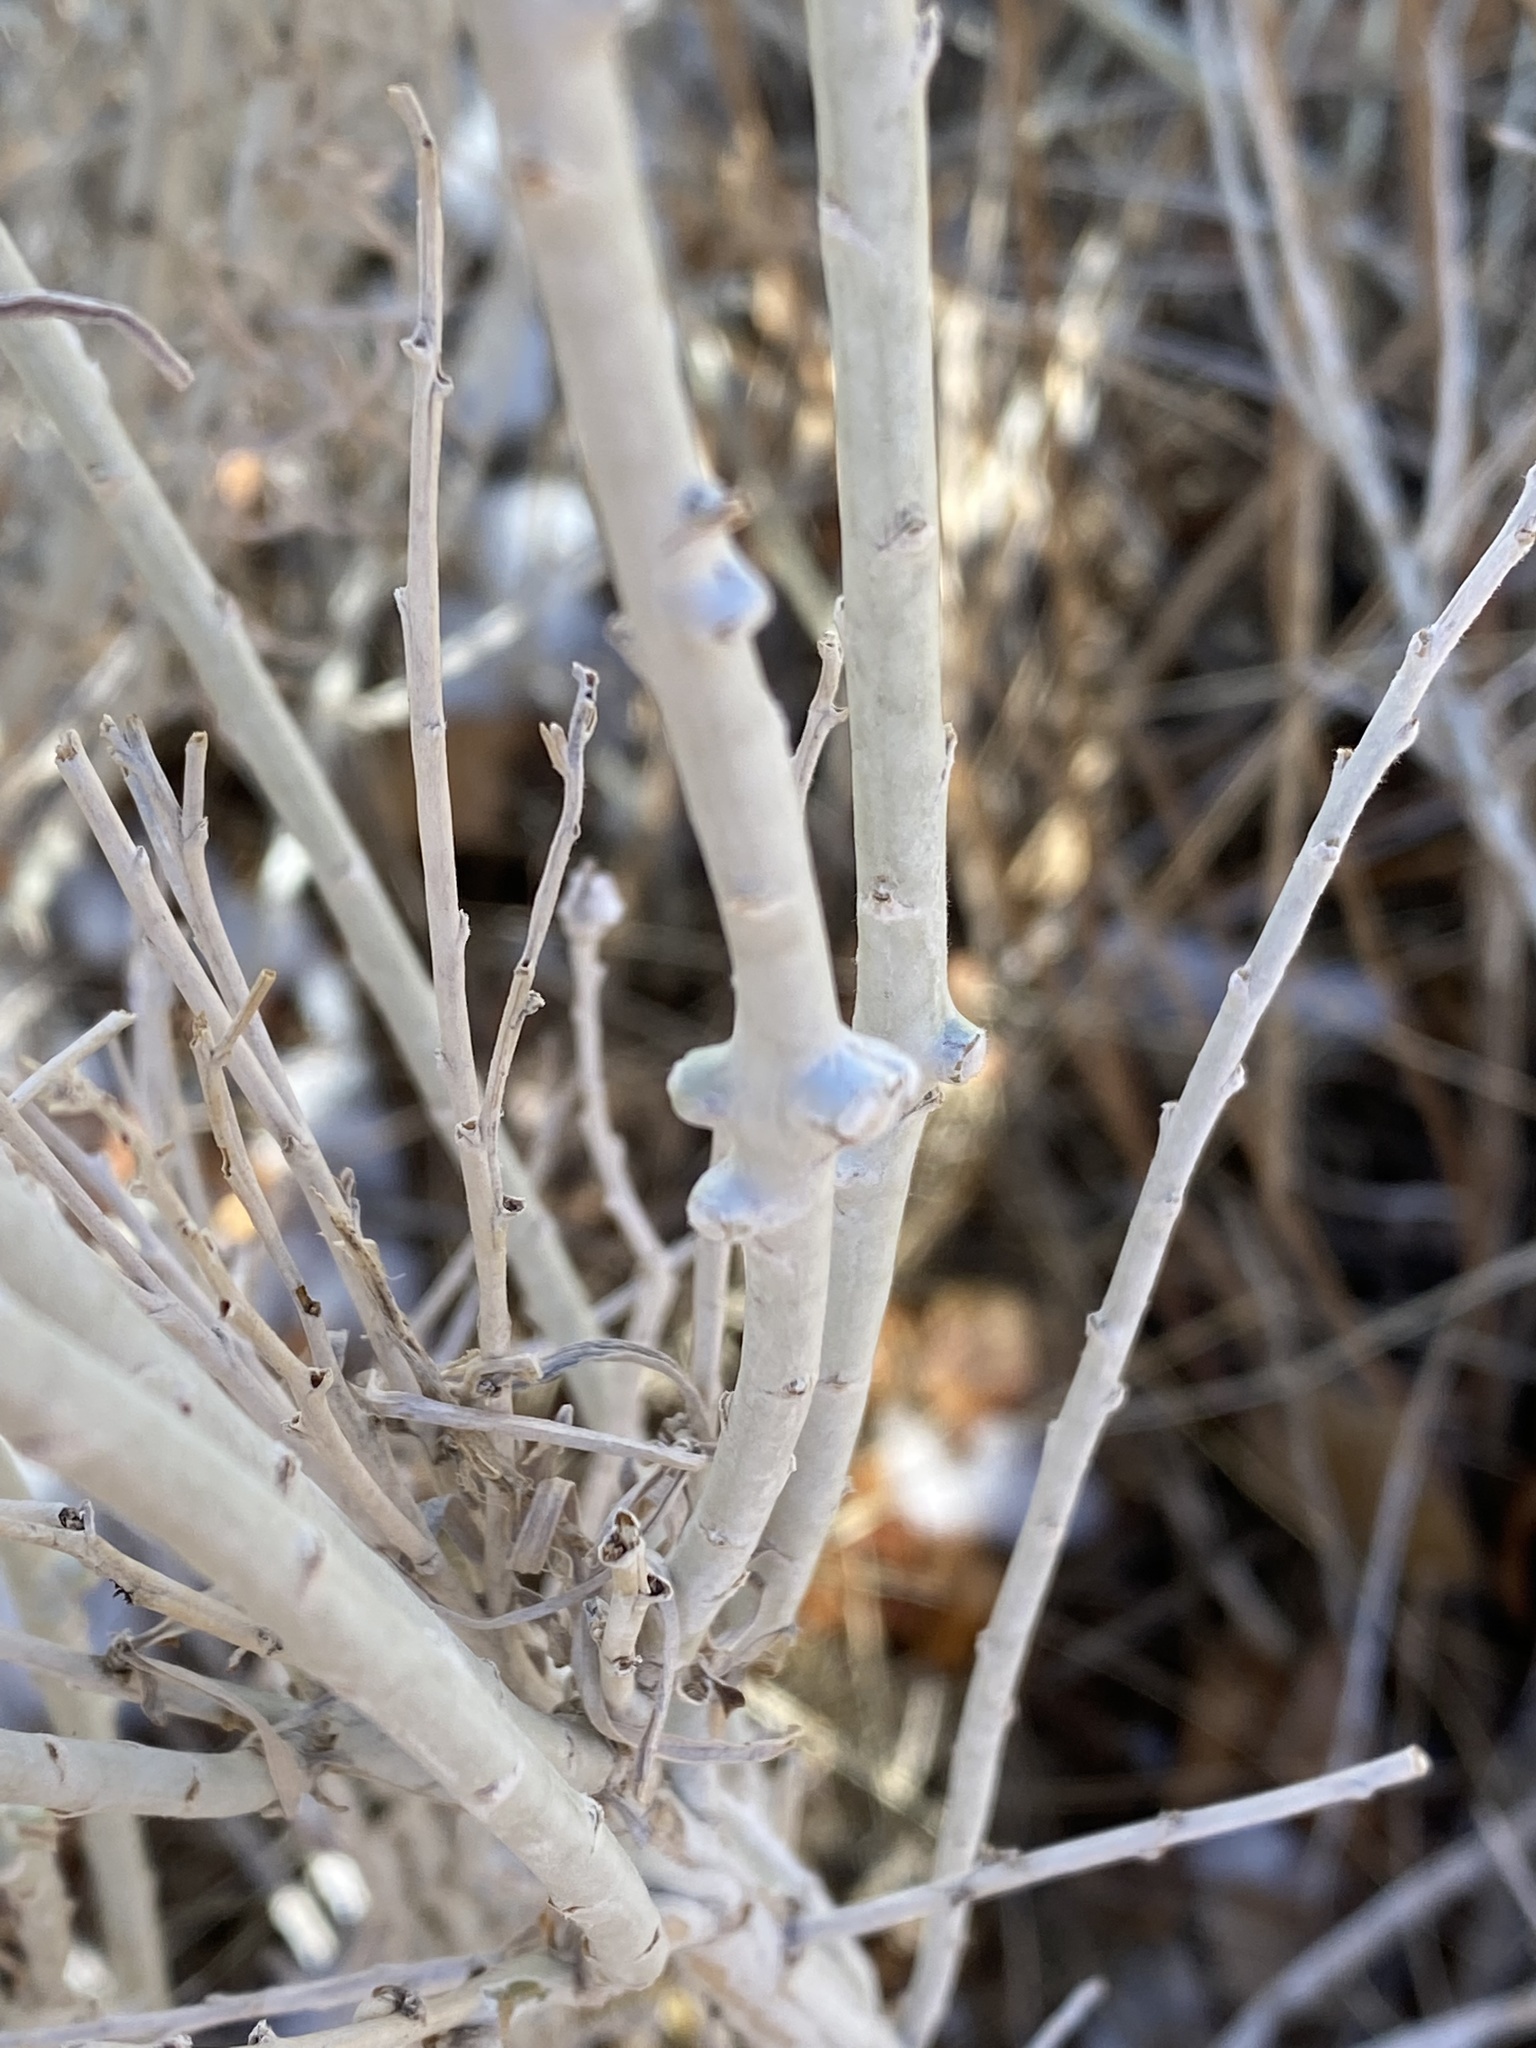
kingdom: Animalia
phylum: Arthropoda
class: Insecta
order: Diptera
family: Cecidomyiidae
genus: Rhopalomyia
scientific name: Rhopalomyia chrysothamni
